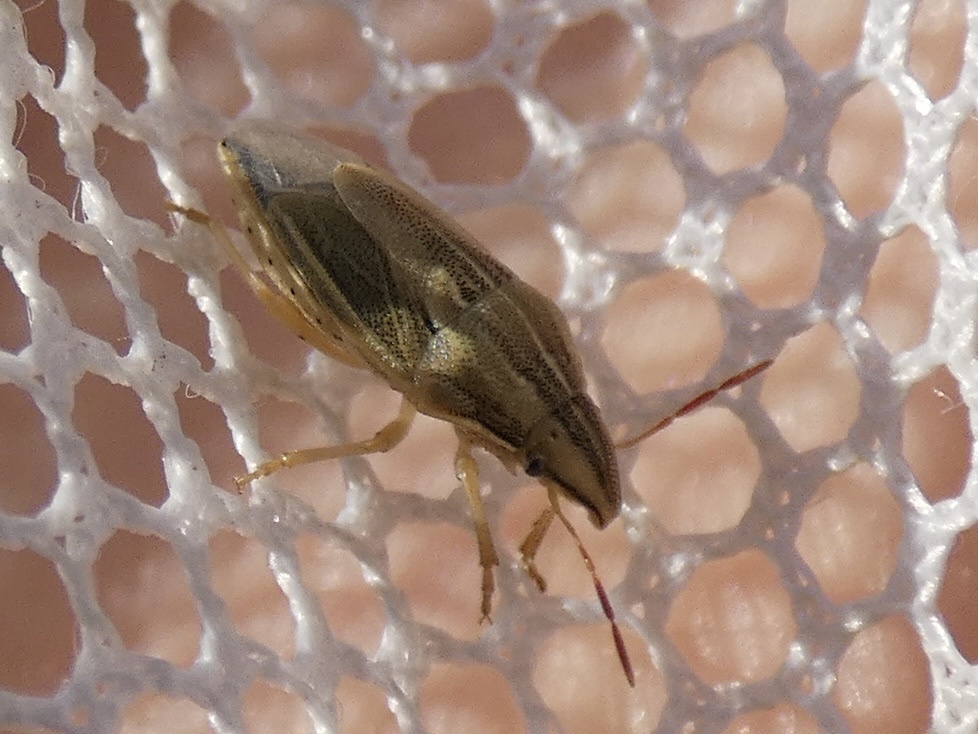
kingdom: Animalia
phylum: Arthropoda
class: Insecta
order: Hemiptera
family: Pentatomidae
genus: Aelia
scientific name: Aelia acuminata
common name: Bishop's mitre
